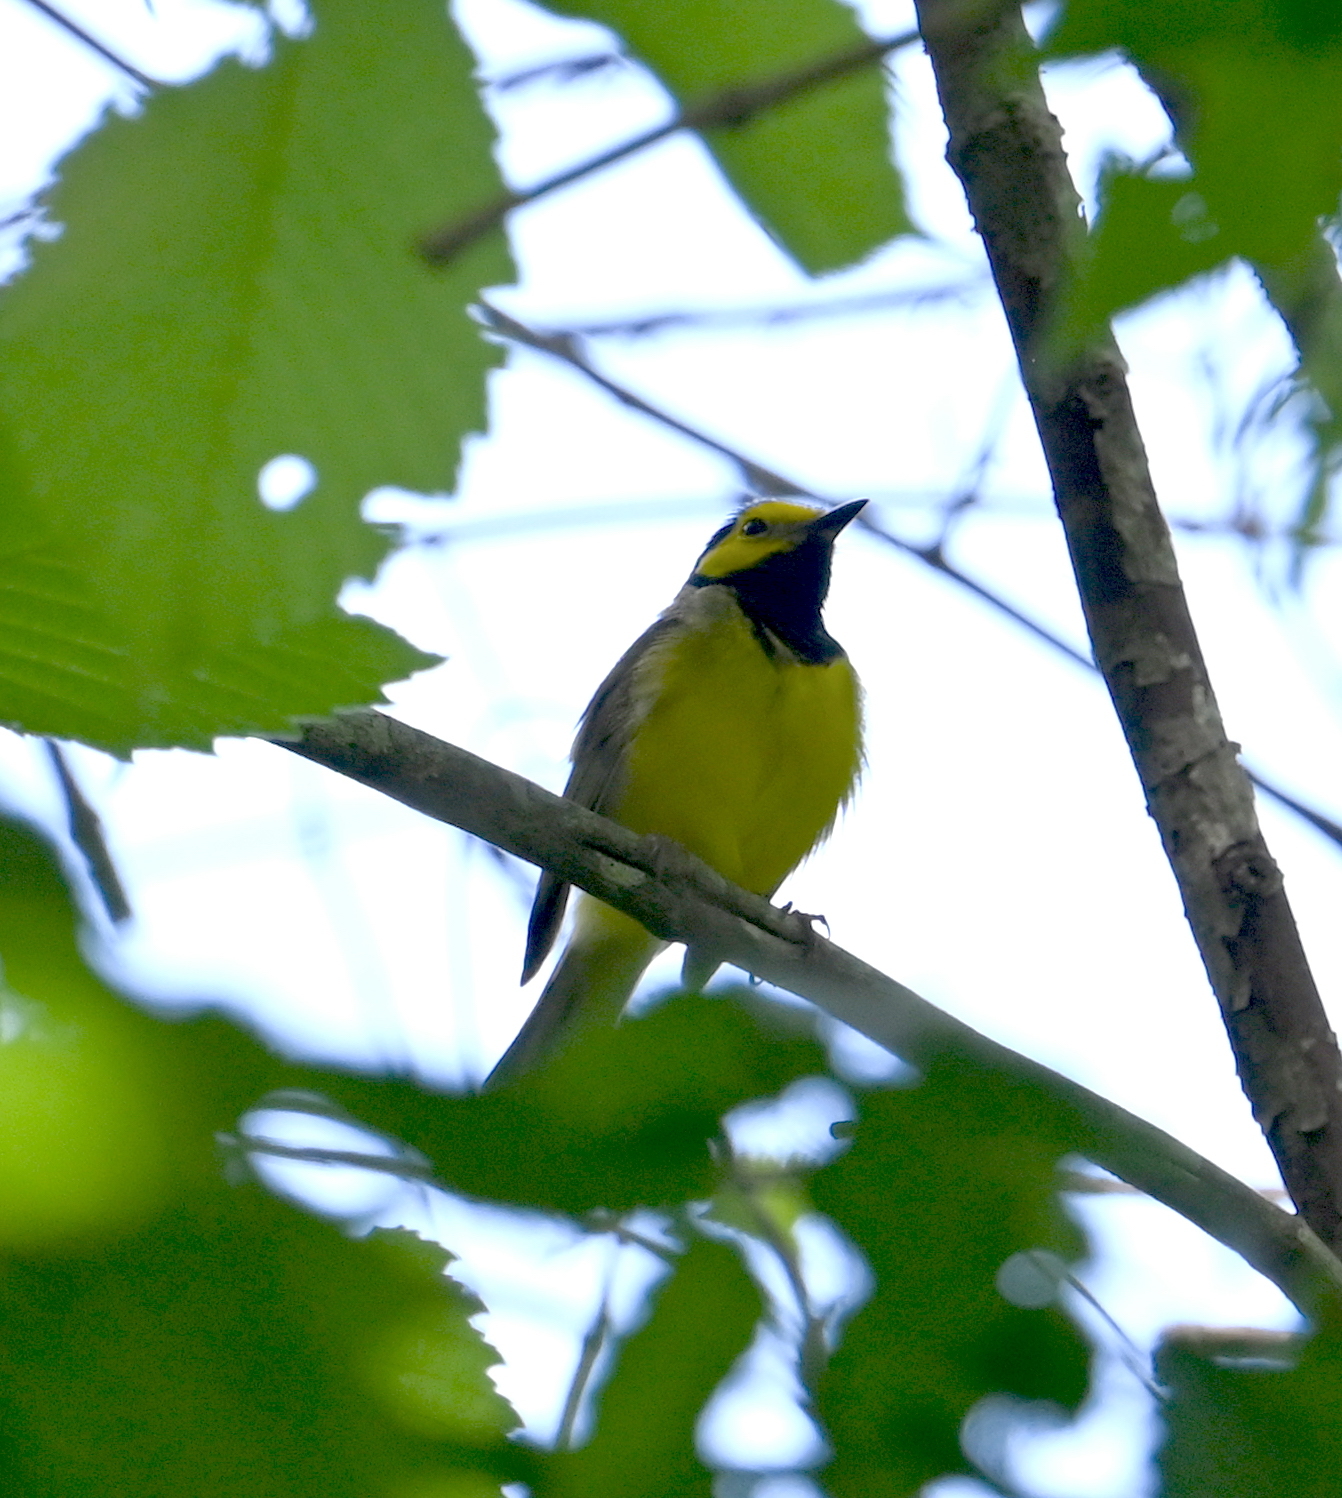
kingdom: Animalia
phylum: Chordata
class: Aves
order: Passeriformes
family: Parulidae
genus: Setophaga
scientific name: Setophaga citrina
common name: Hooded warbler
